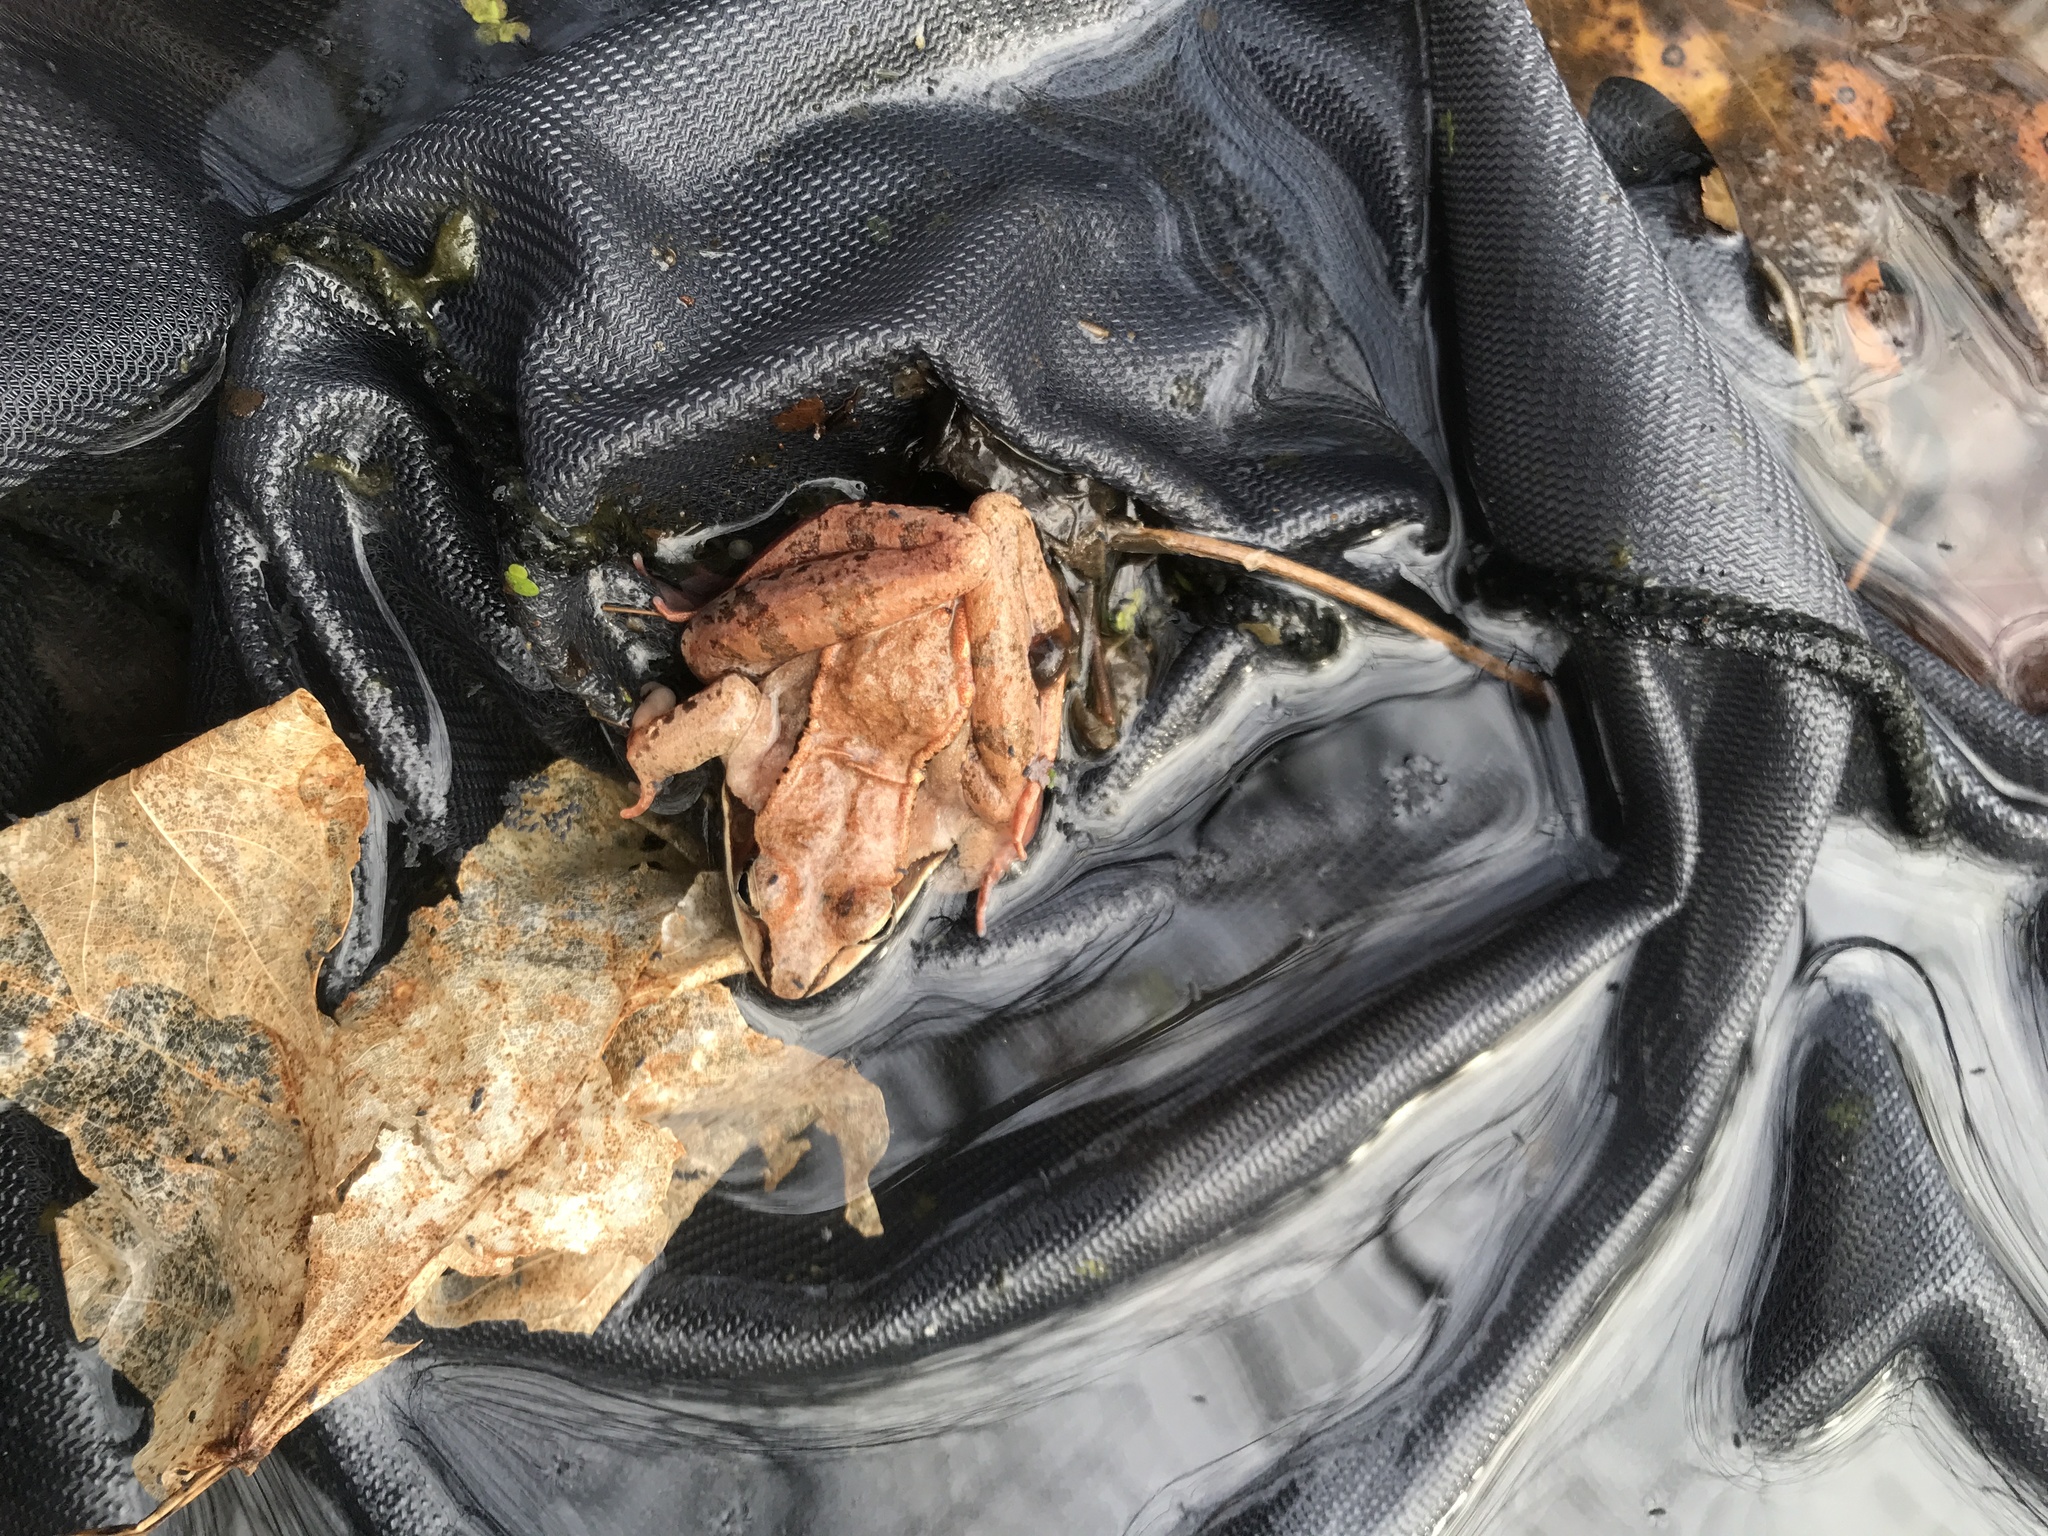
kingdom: Animalia
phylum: Chordata
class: Amphibia
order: Anura
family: Ranidae
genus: Lithobates
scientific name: Lithobates sylvaticus
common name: Wood frog
